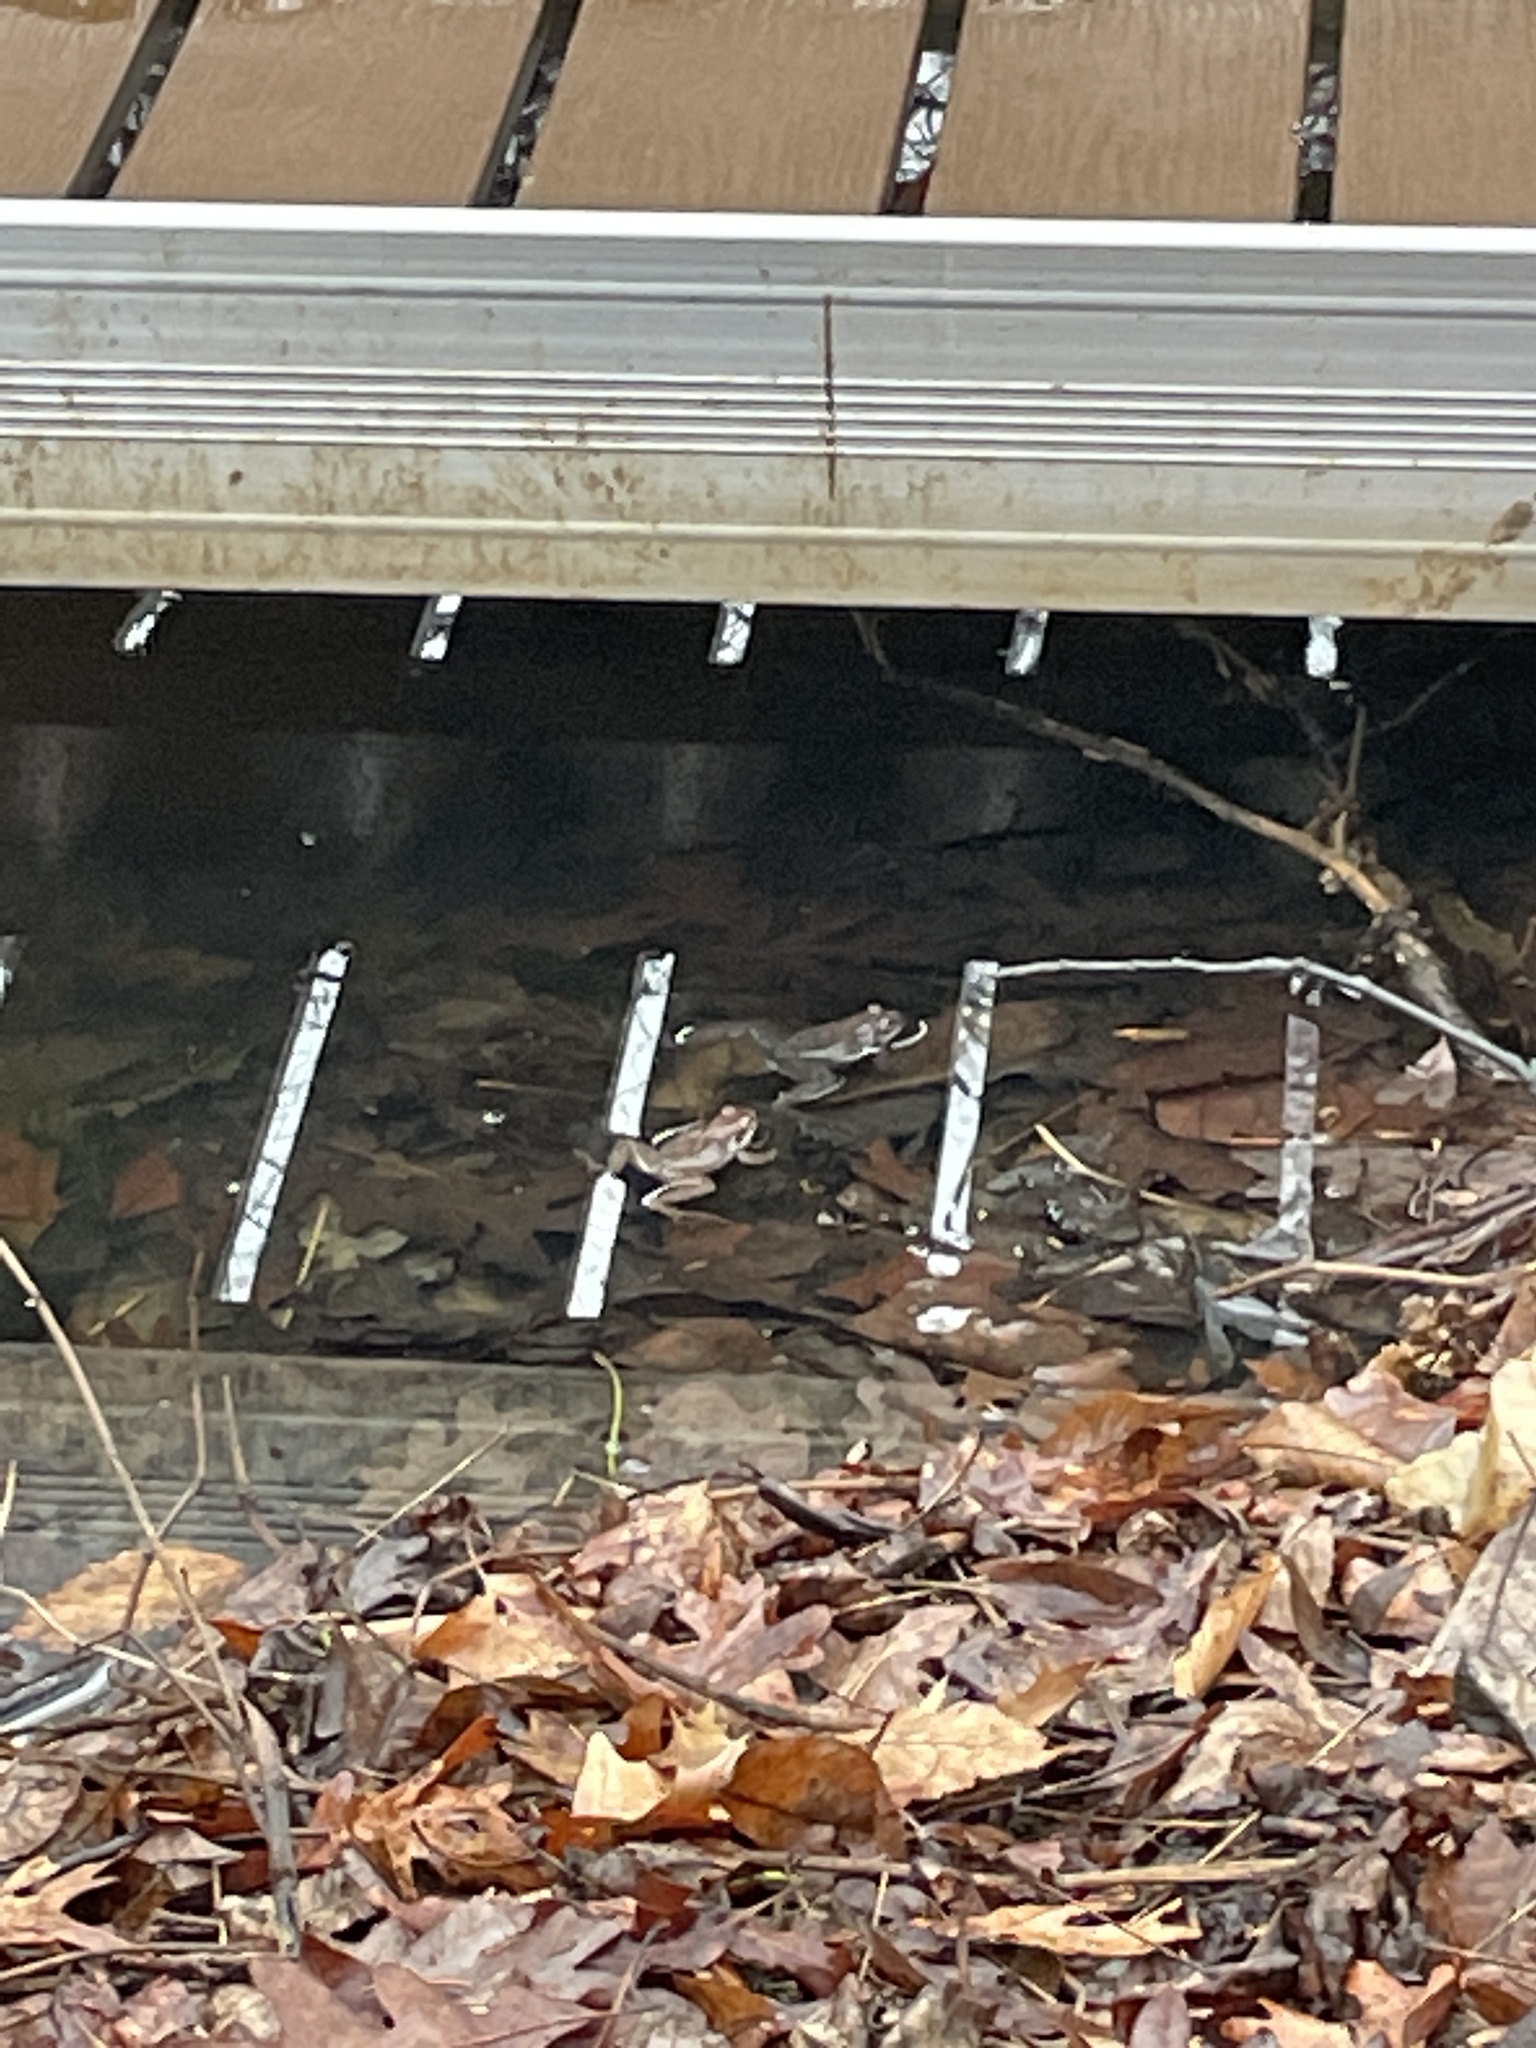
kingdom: Animalia
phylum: Chordata
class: Amphibia
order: Anura
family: Ranidae
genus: Lithobates
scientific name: Lithobates sylvaticus
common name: Wood frog
